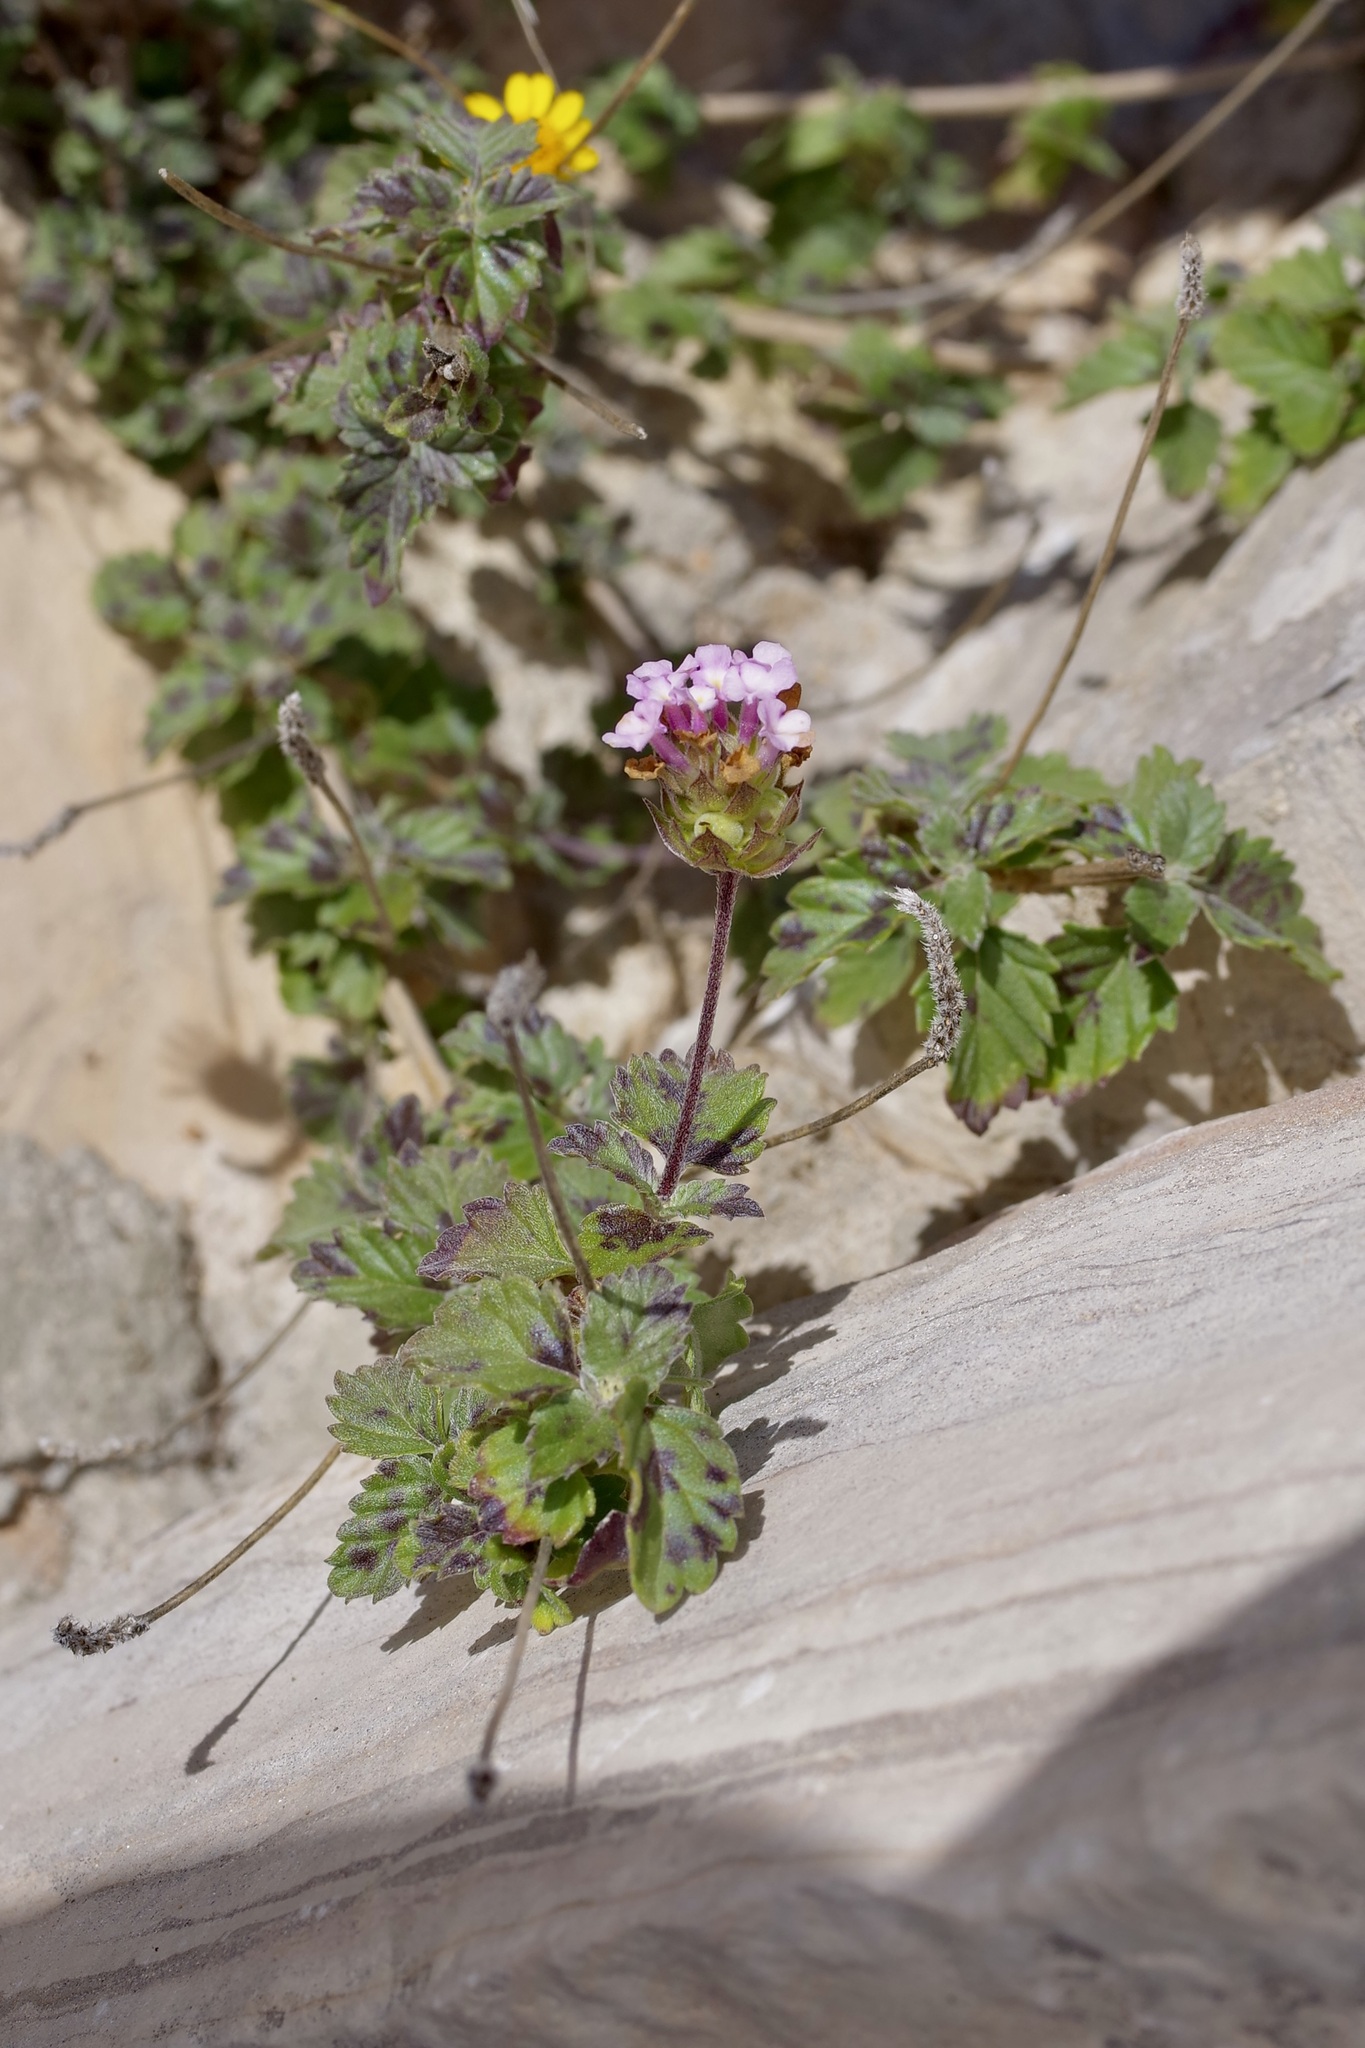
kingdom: Plantae
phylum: Tracheophyta
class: Magnoliopsida
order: Lamiales
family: Verbenaceae
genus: Lantana
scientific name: Lantana achyranthifolia
